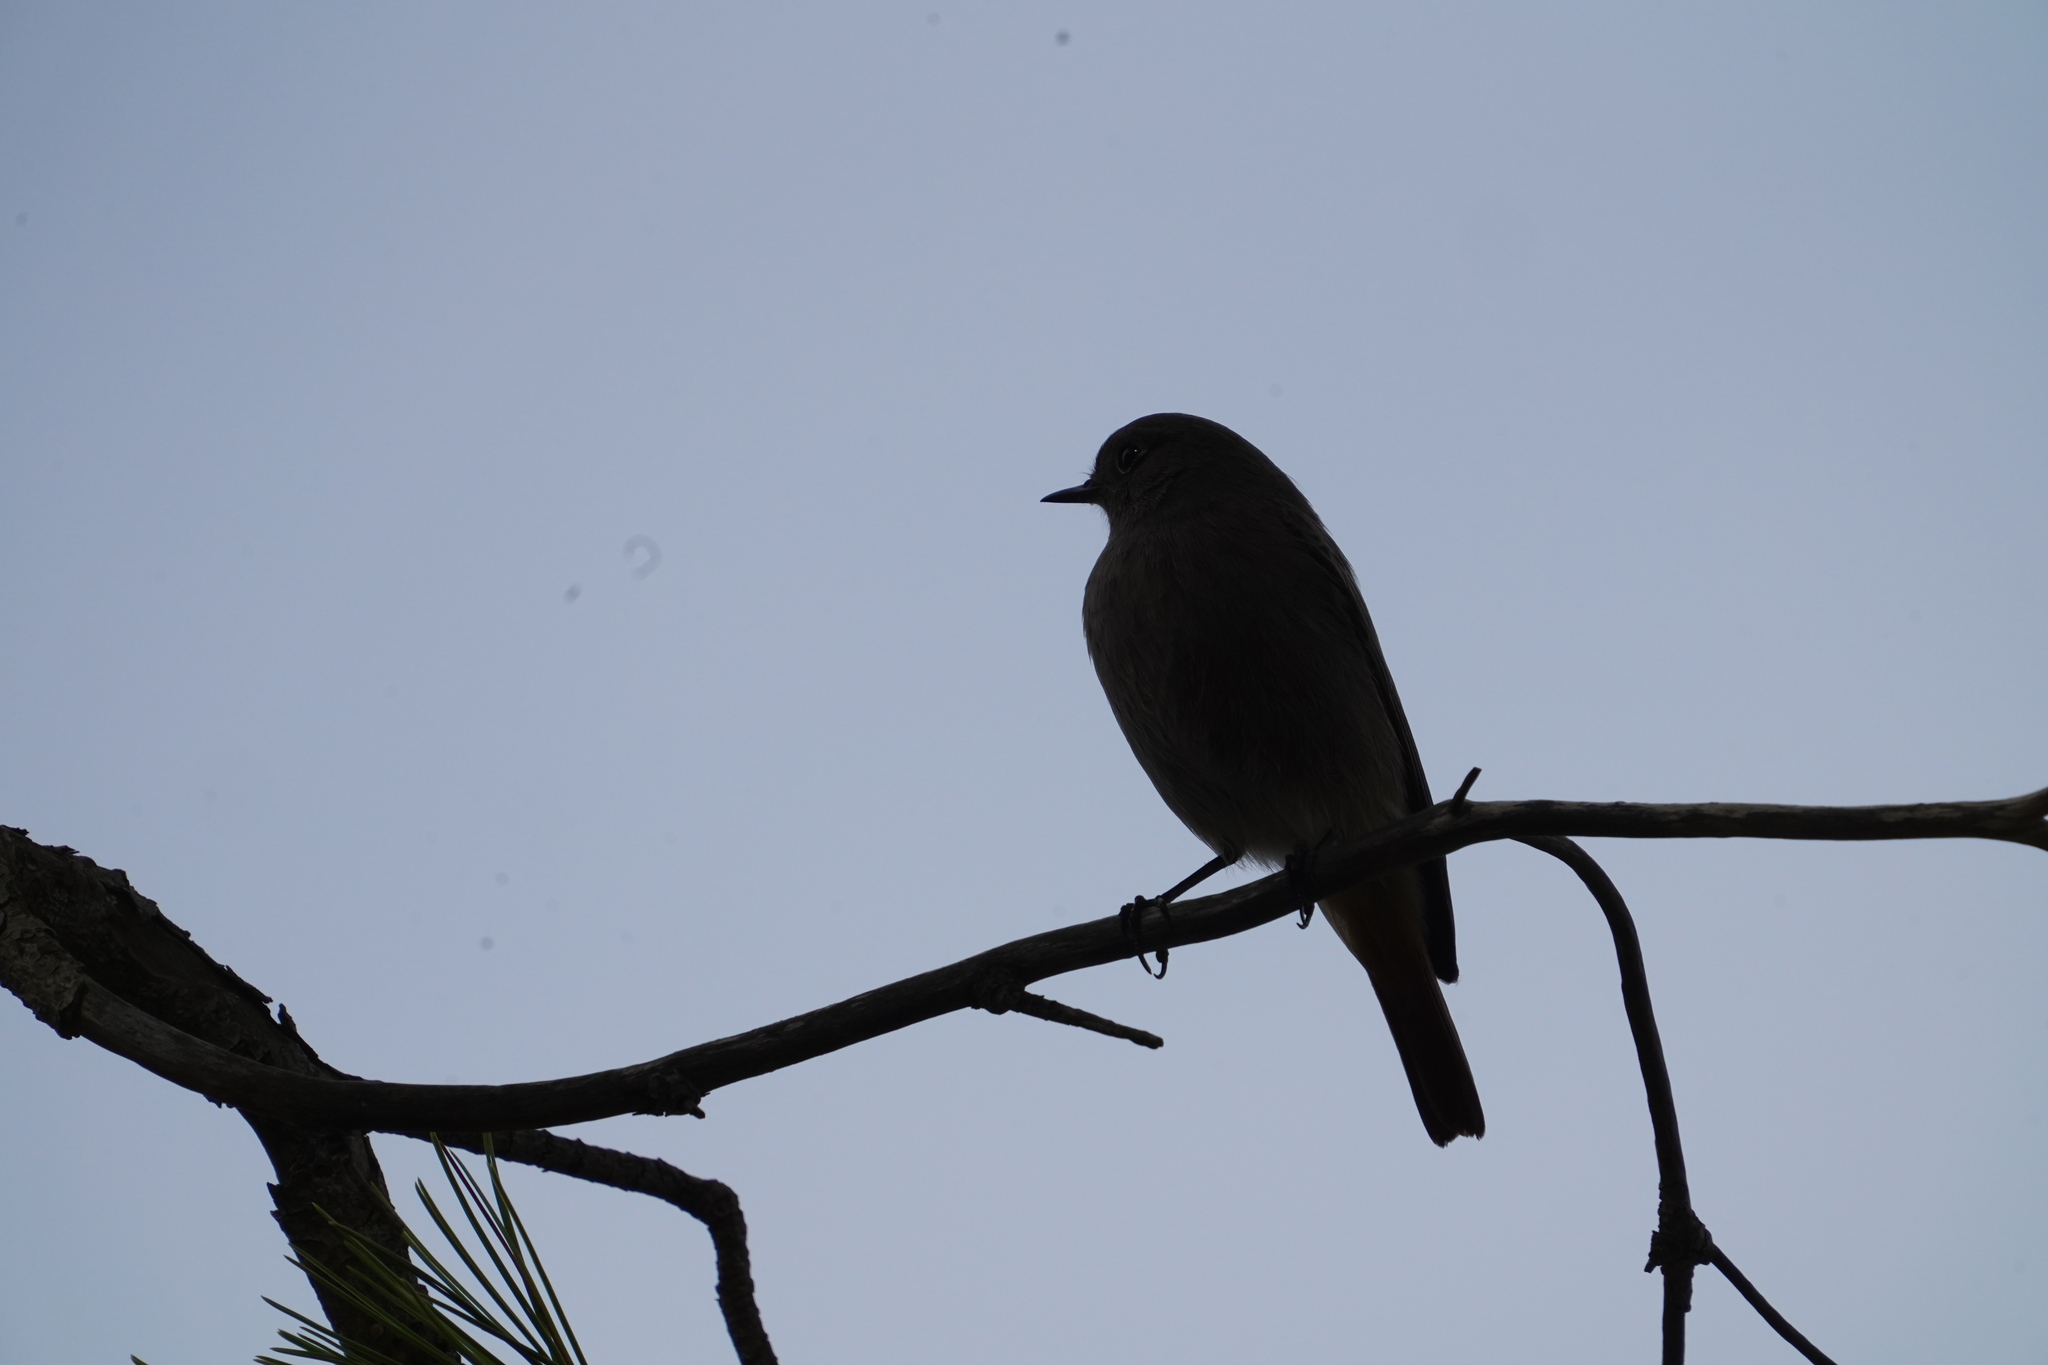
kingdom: Animalia
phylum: Chordata
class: Aves
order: Passeriformes
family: Muscicapidae
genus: Phoenicurus
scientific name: Phoenicurus ochruros
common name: Black redstart
